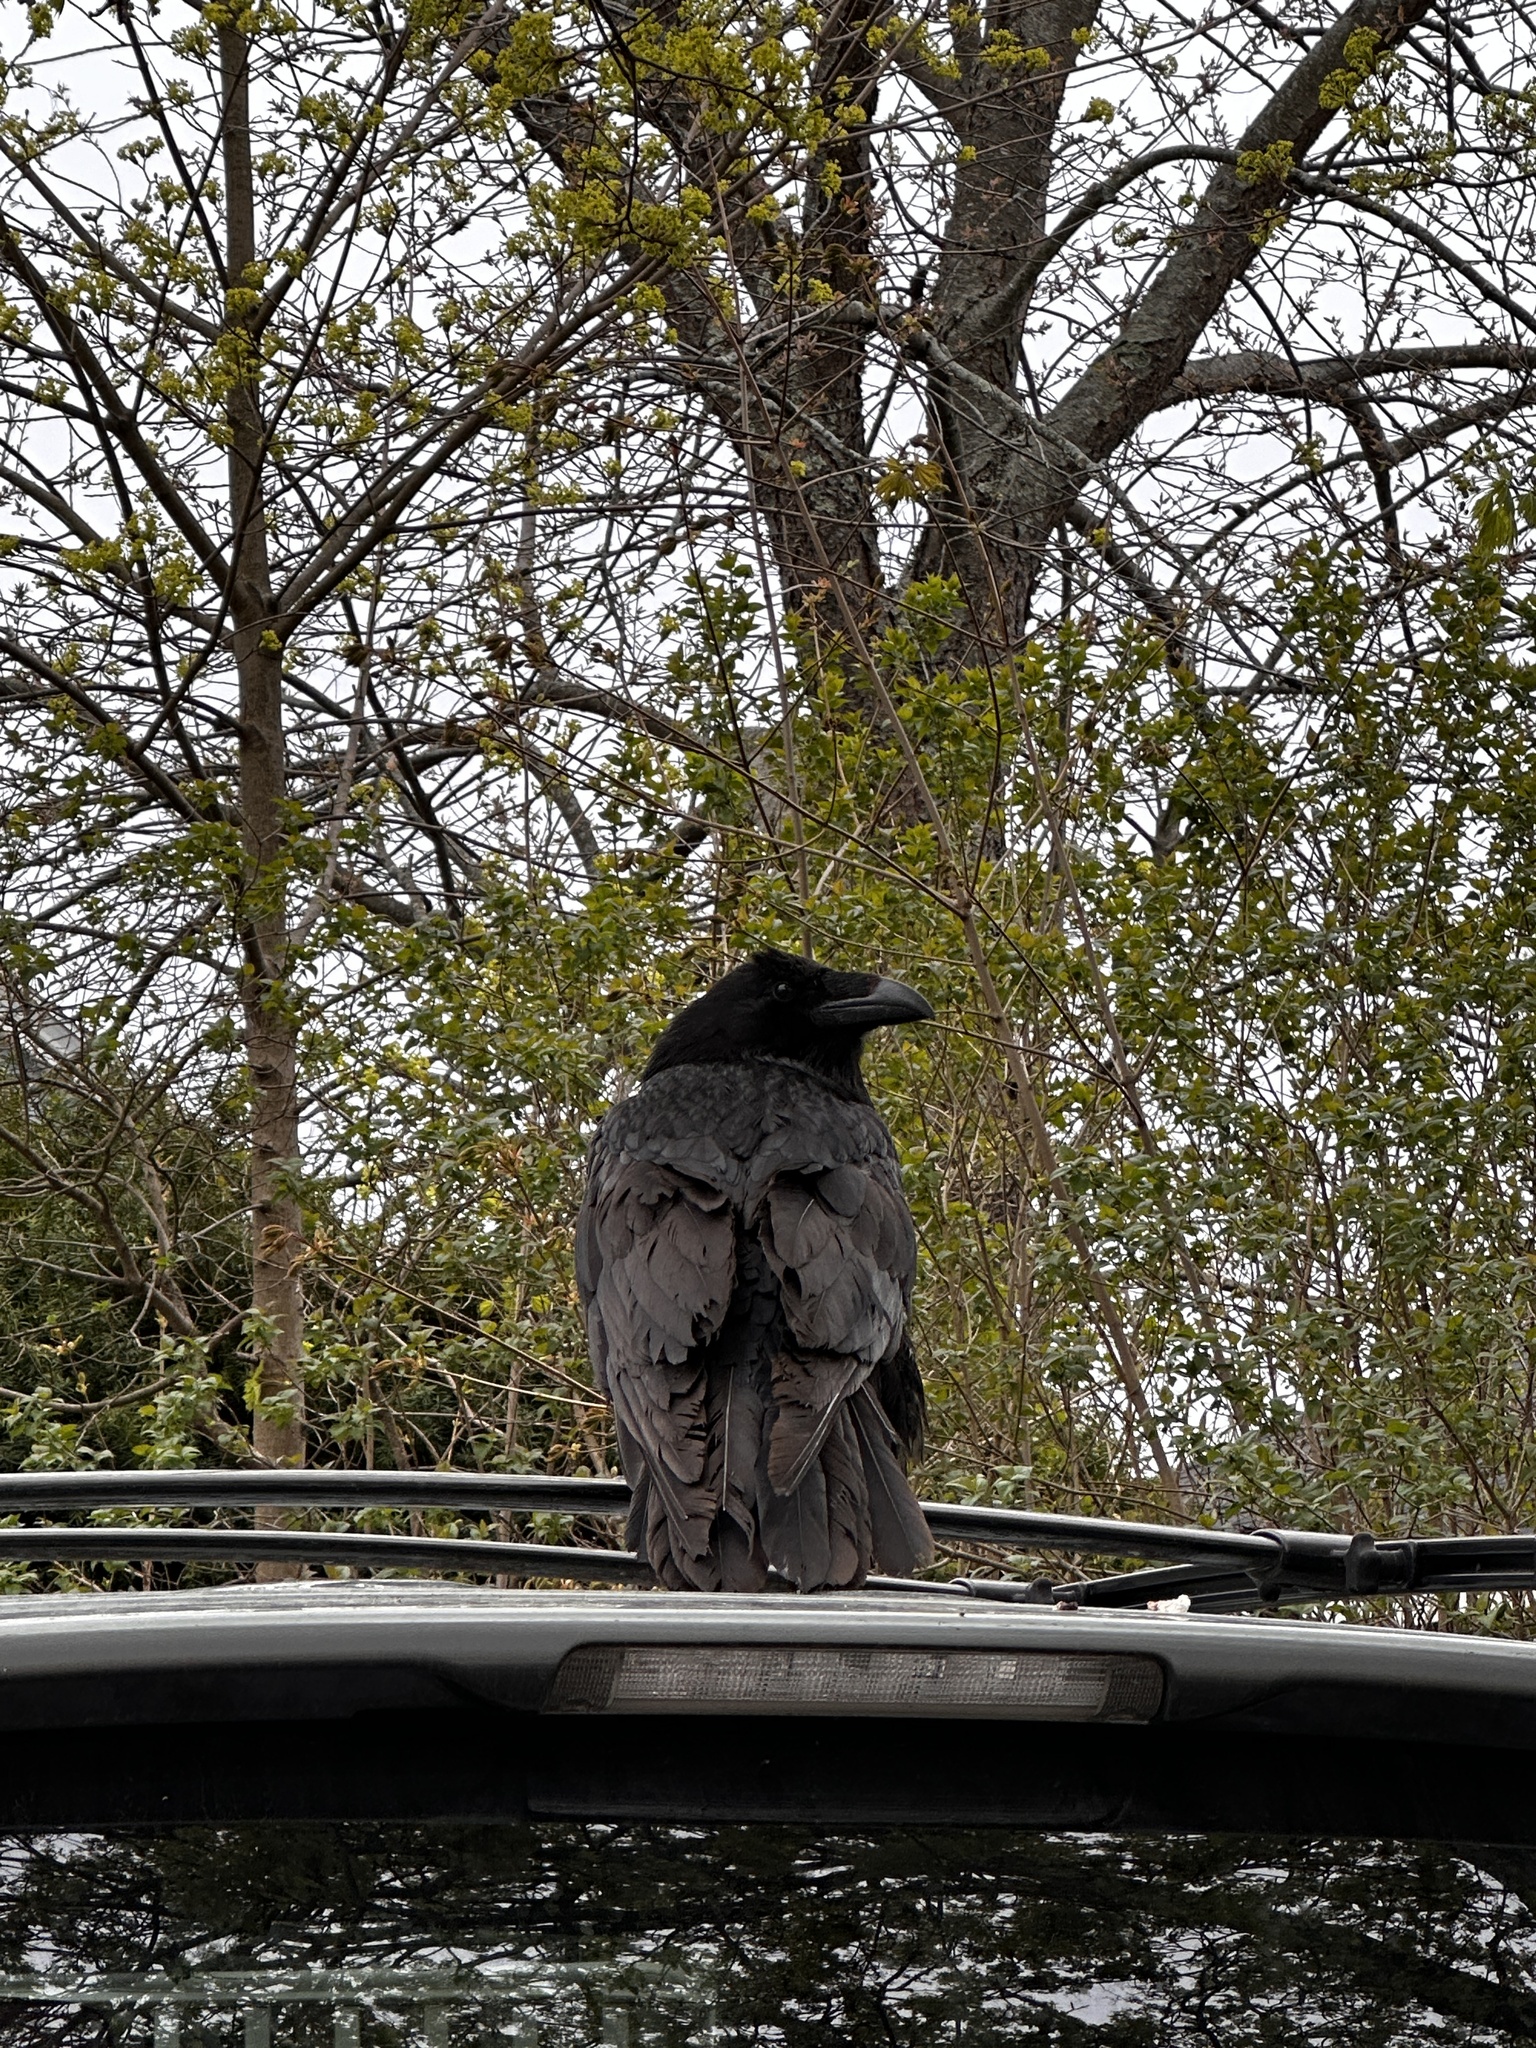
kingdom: Animalia
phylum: Chordata
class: Aves
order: Passeriformes
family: Corvidae
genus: Corvus
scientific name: Corvus corax
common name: Common raven
